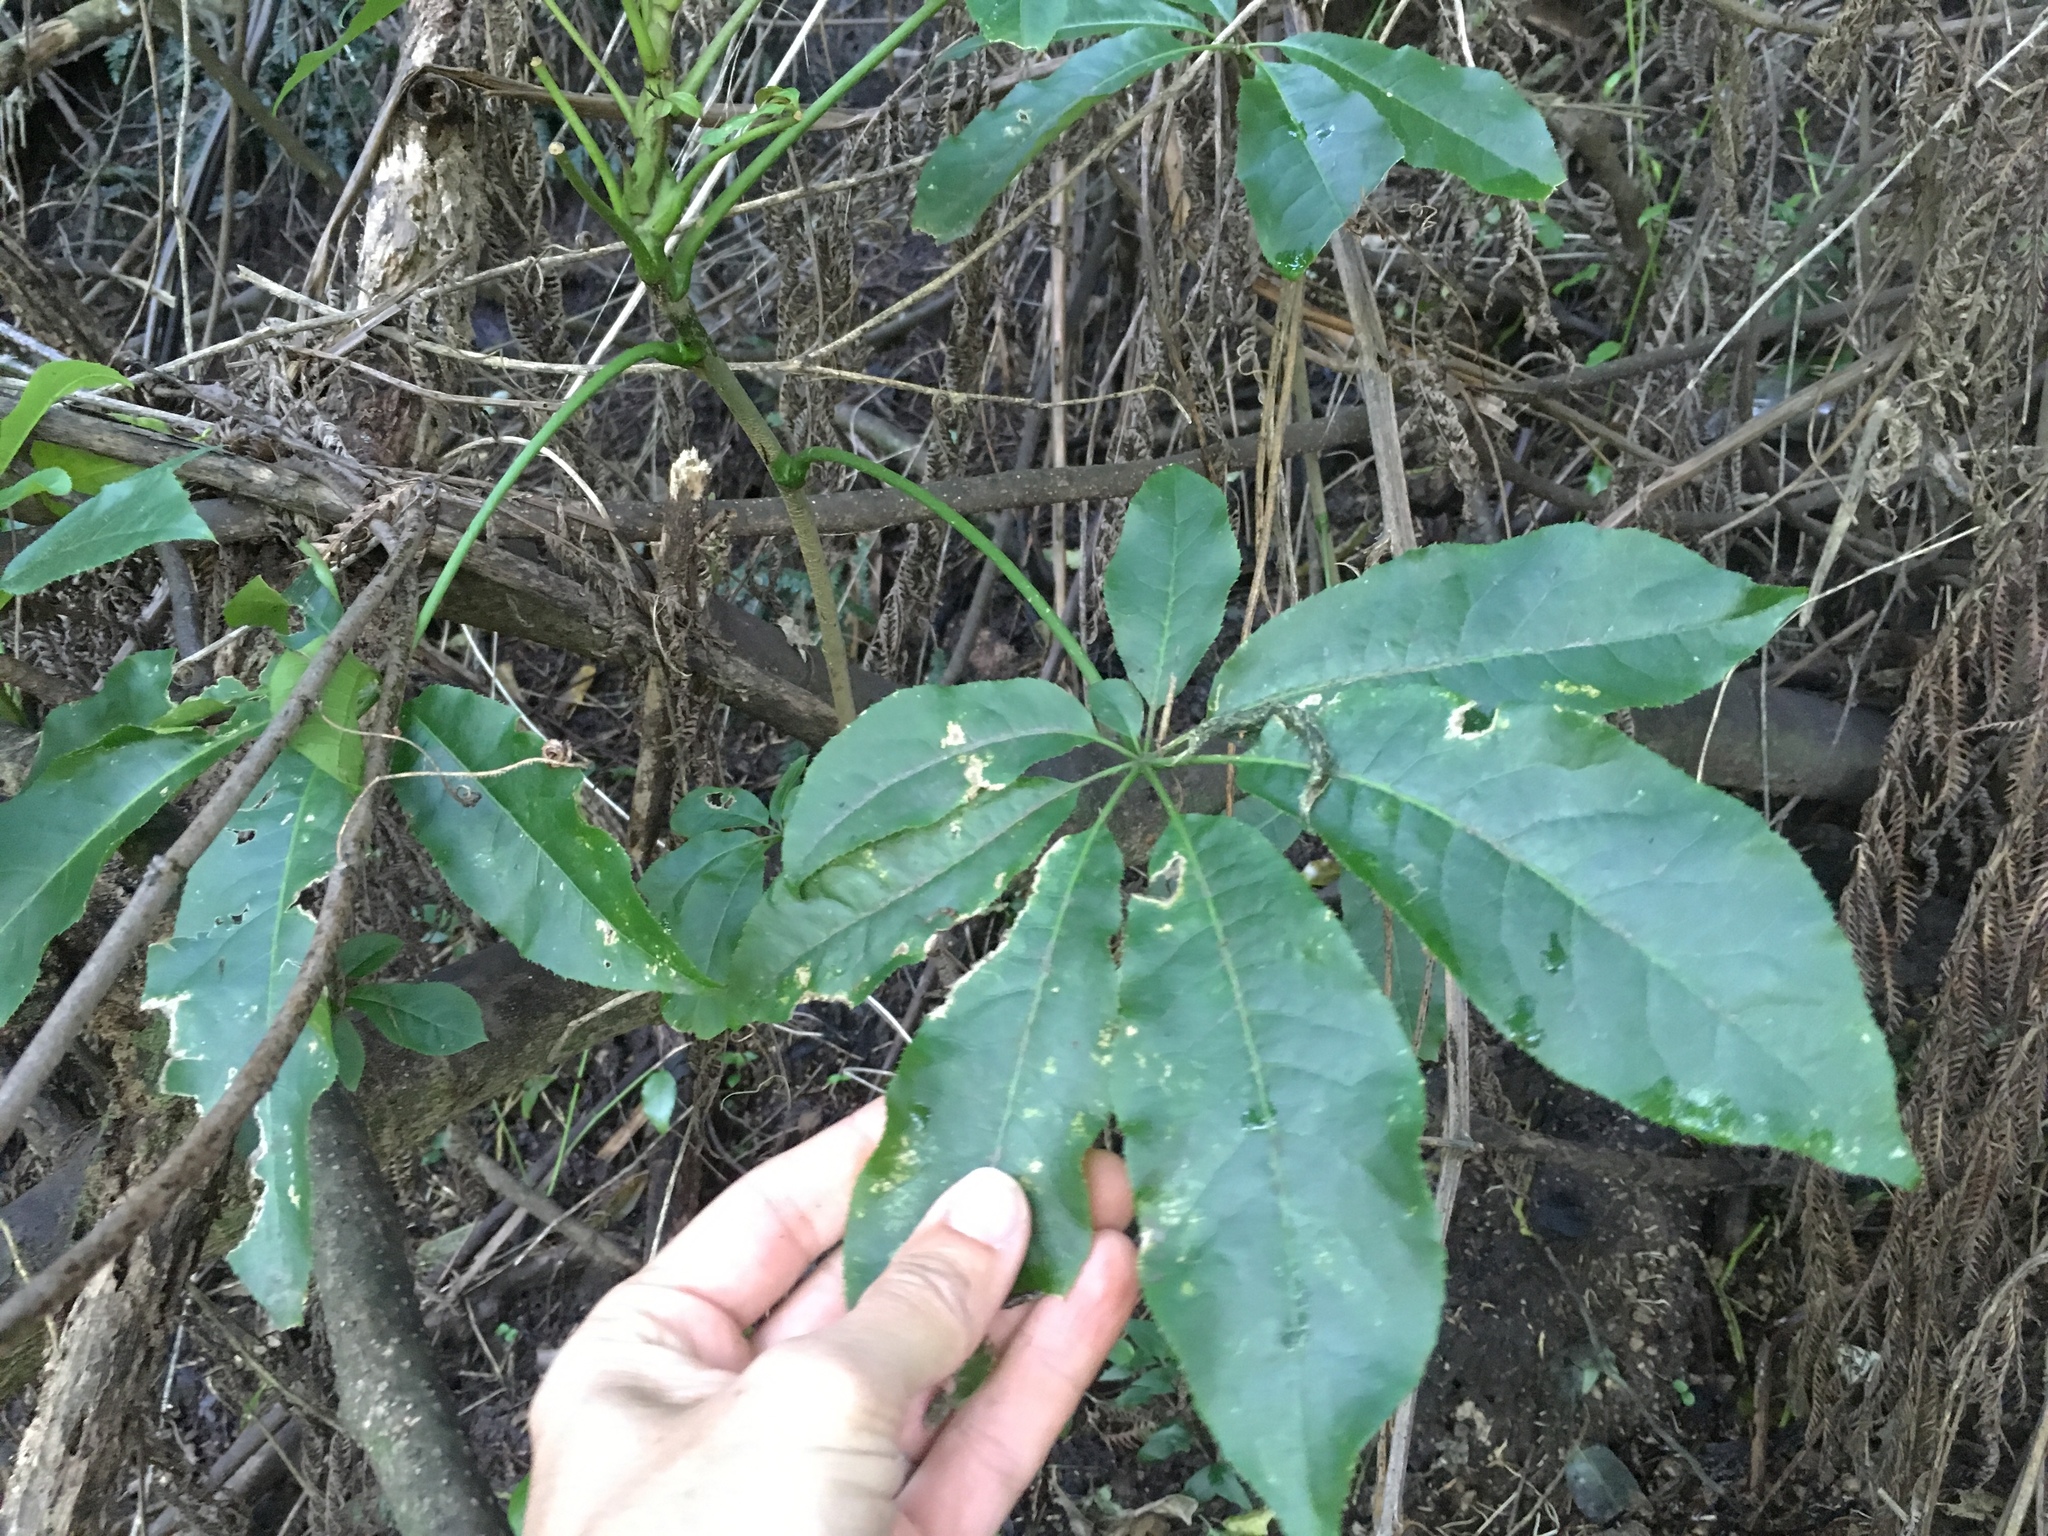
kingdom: Plantae
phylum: Tracheophyta
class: Magnoliopsida
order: Apiales
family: Araliaceae
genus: Schefflera
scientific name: Schefflera digitata
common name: Pate
